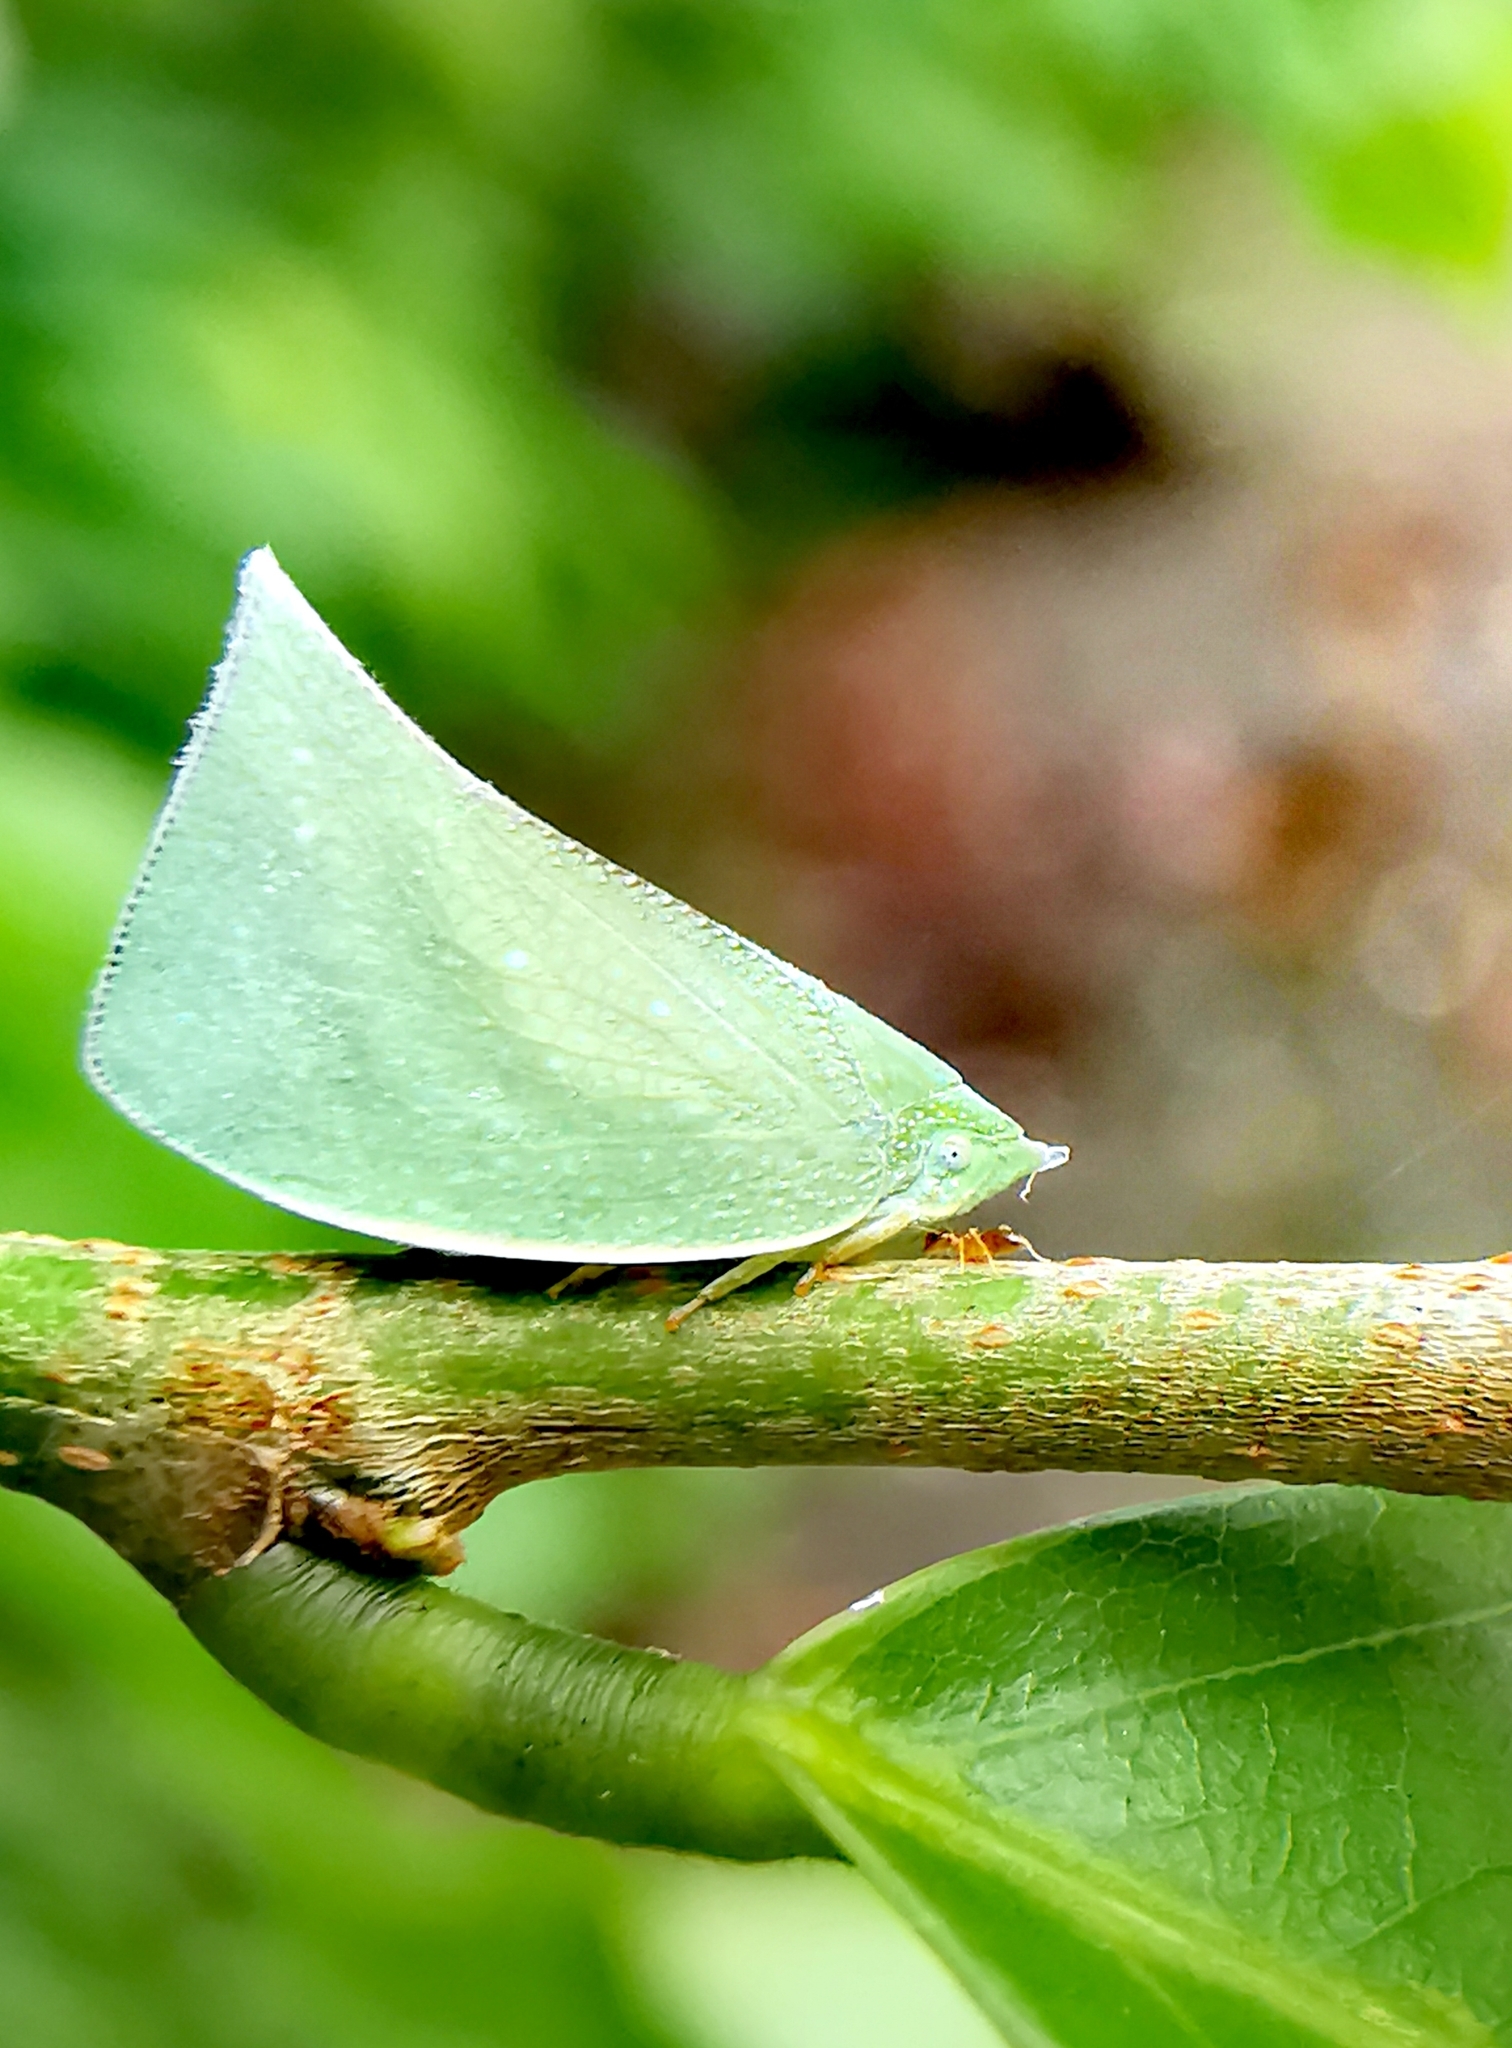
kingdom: Animalia
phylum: Arthropoda
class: Insecta
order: Hemiptera
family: Flatidae
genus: Cromna
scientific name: Cromna acutipennis
